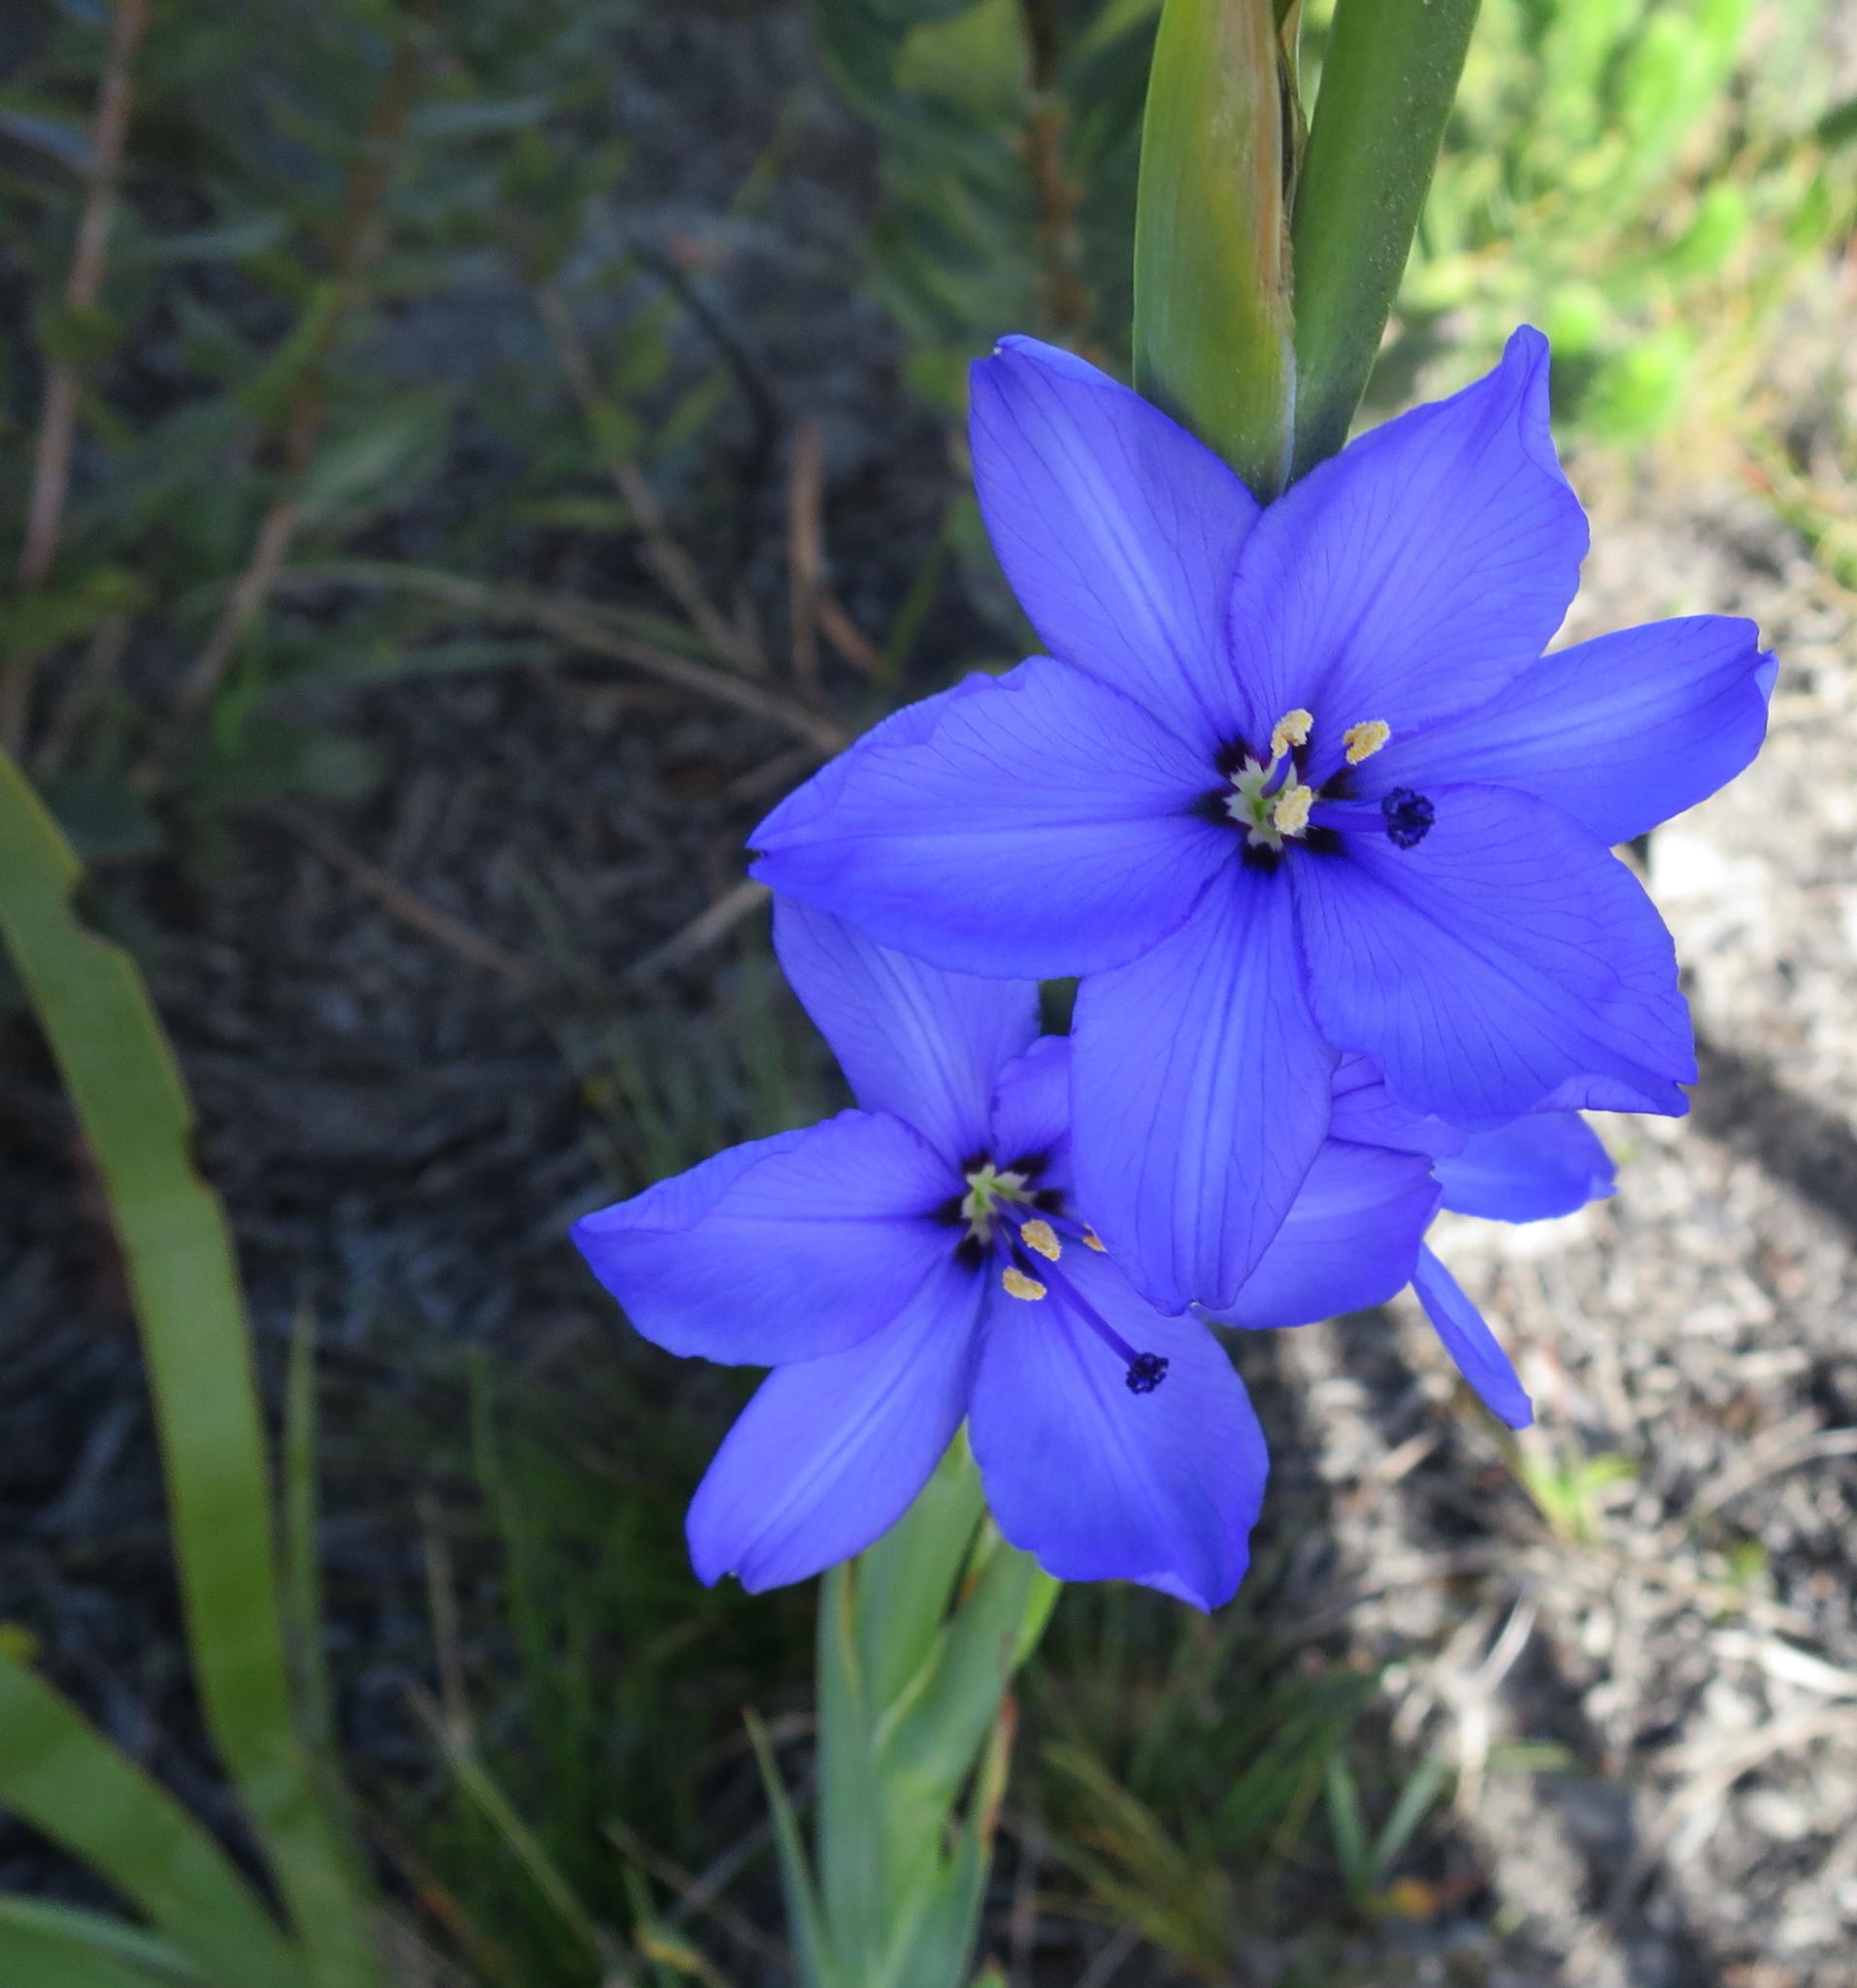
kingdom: Plantae
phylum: Tracheophyta
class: Liliopsida
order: Asparagales
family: Iridaceae
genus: Aristea
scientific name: Aristea spiralis
